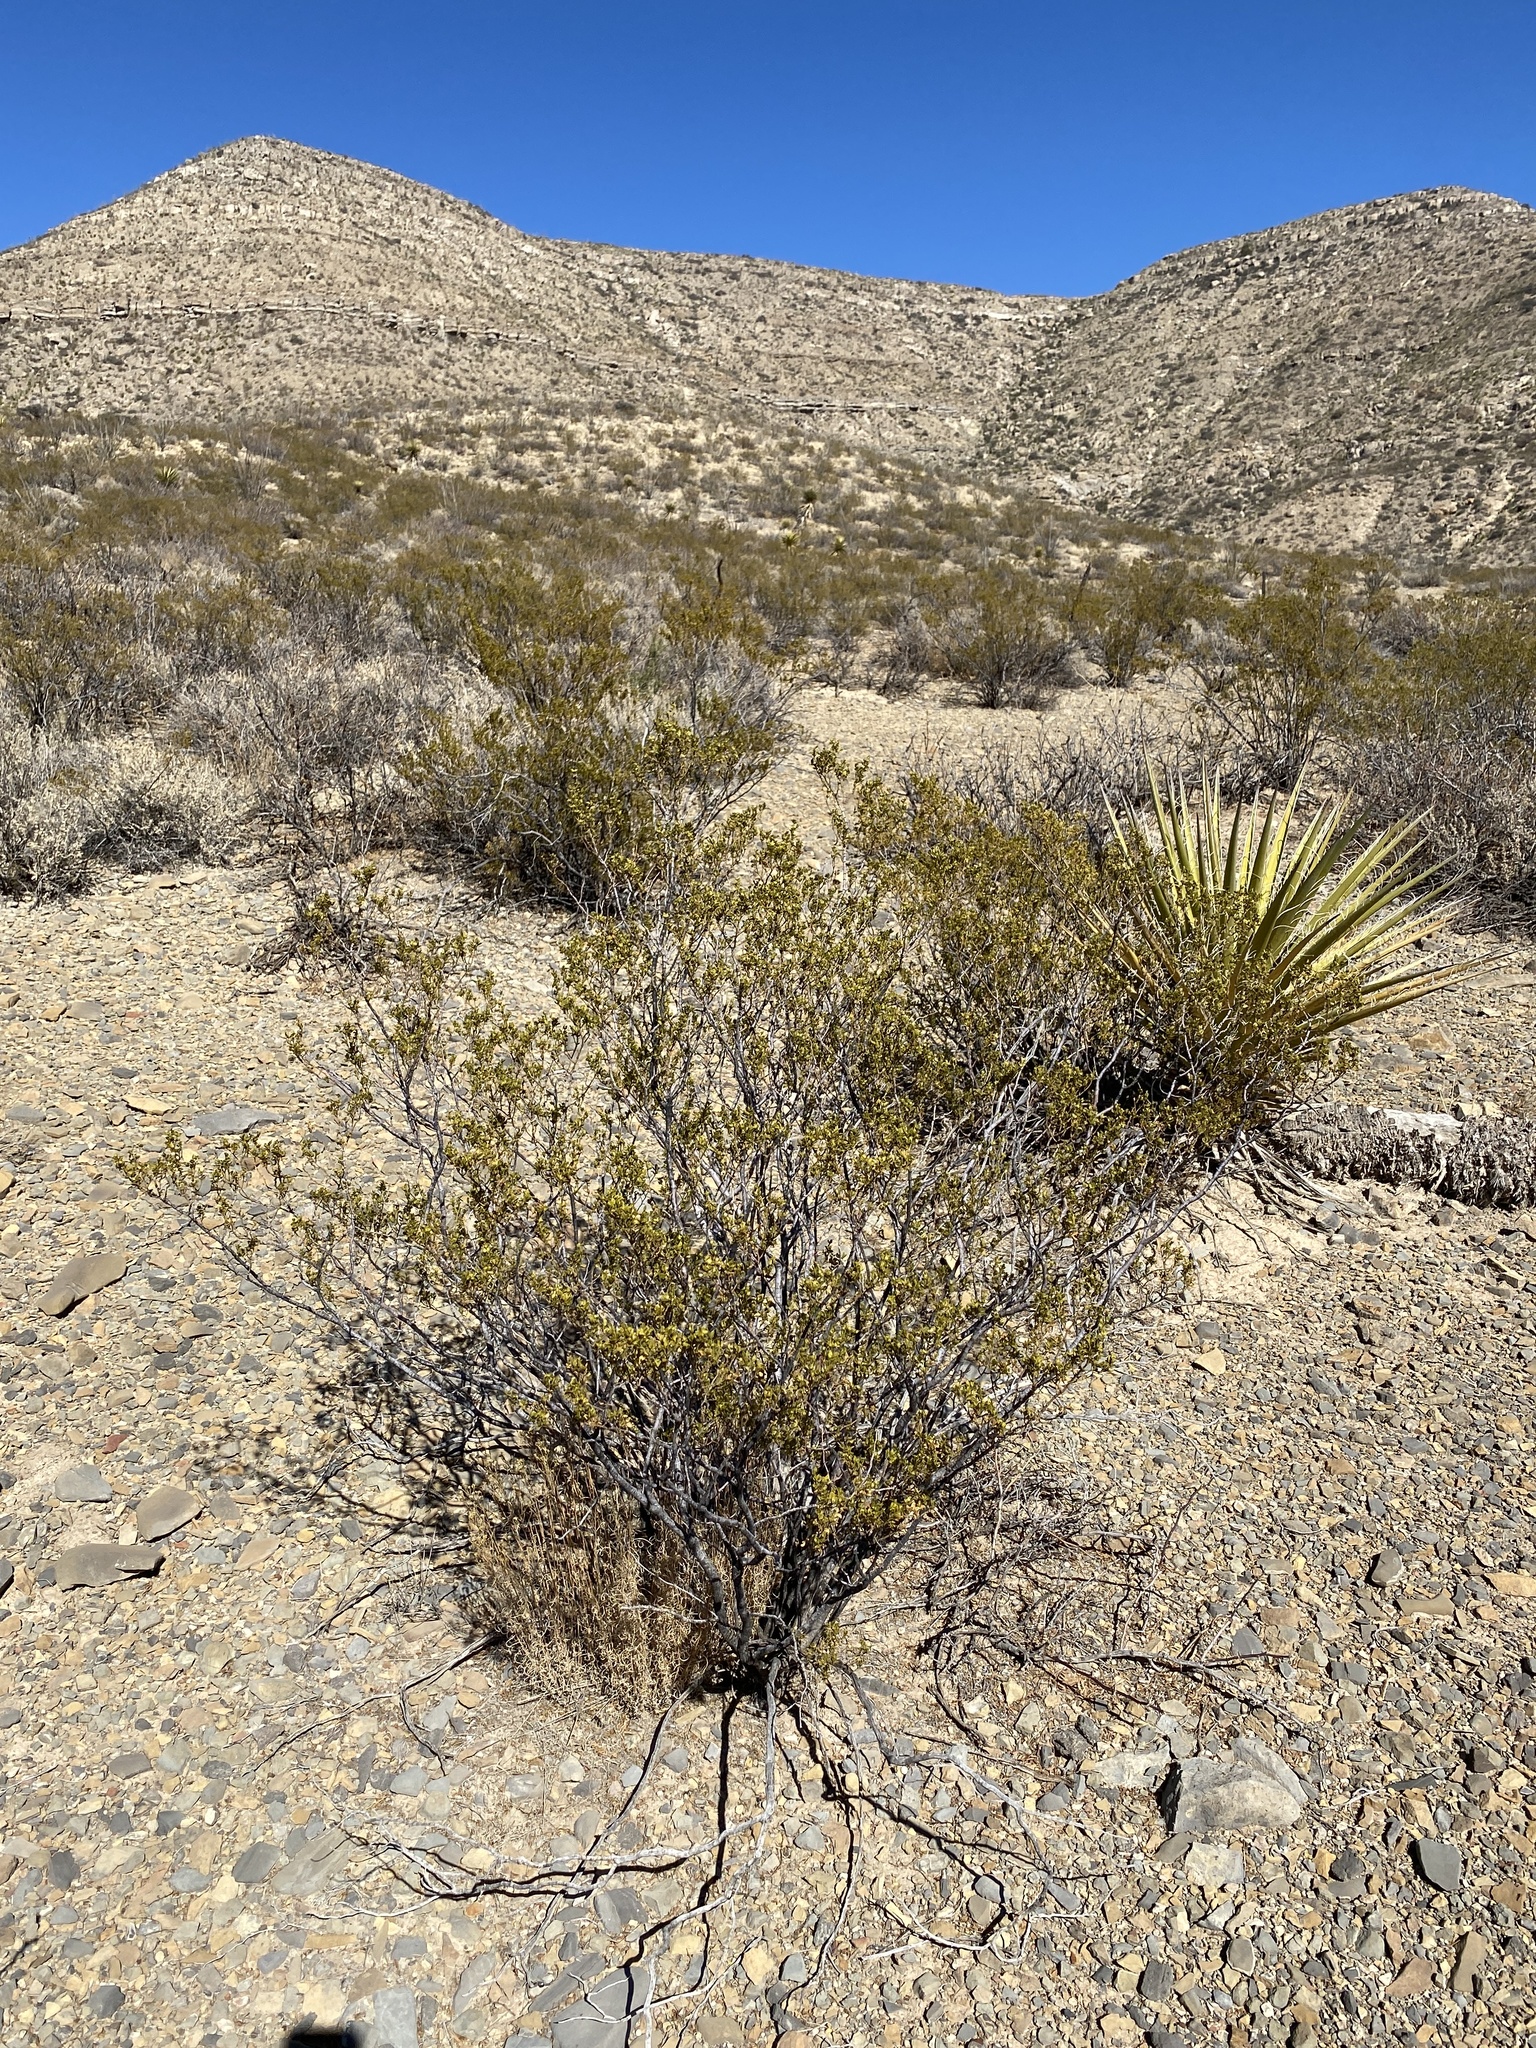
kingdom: Plantae
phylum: Tracheophyta
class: Magnoliopsida
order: Zygophyllales
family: Zygophyllaceae
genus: Larrea
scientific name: Larrea tridentata
